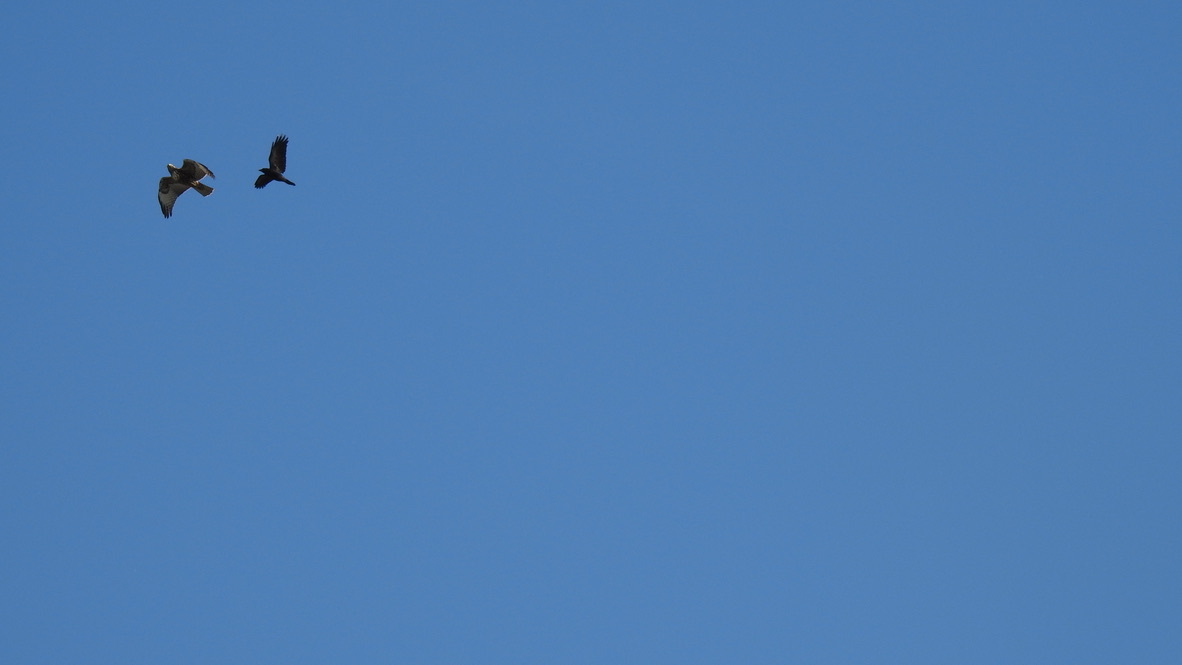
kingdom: Animalia
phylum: Chordata
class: Aves
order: Accipitriformes
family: Accipitridae
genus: Buteo
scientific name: Buteo jamaicensis
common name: Red-tailed hawk
